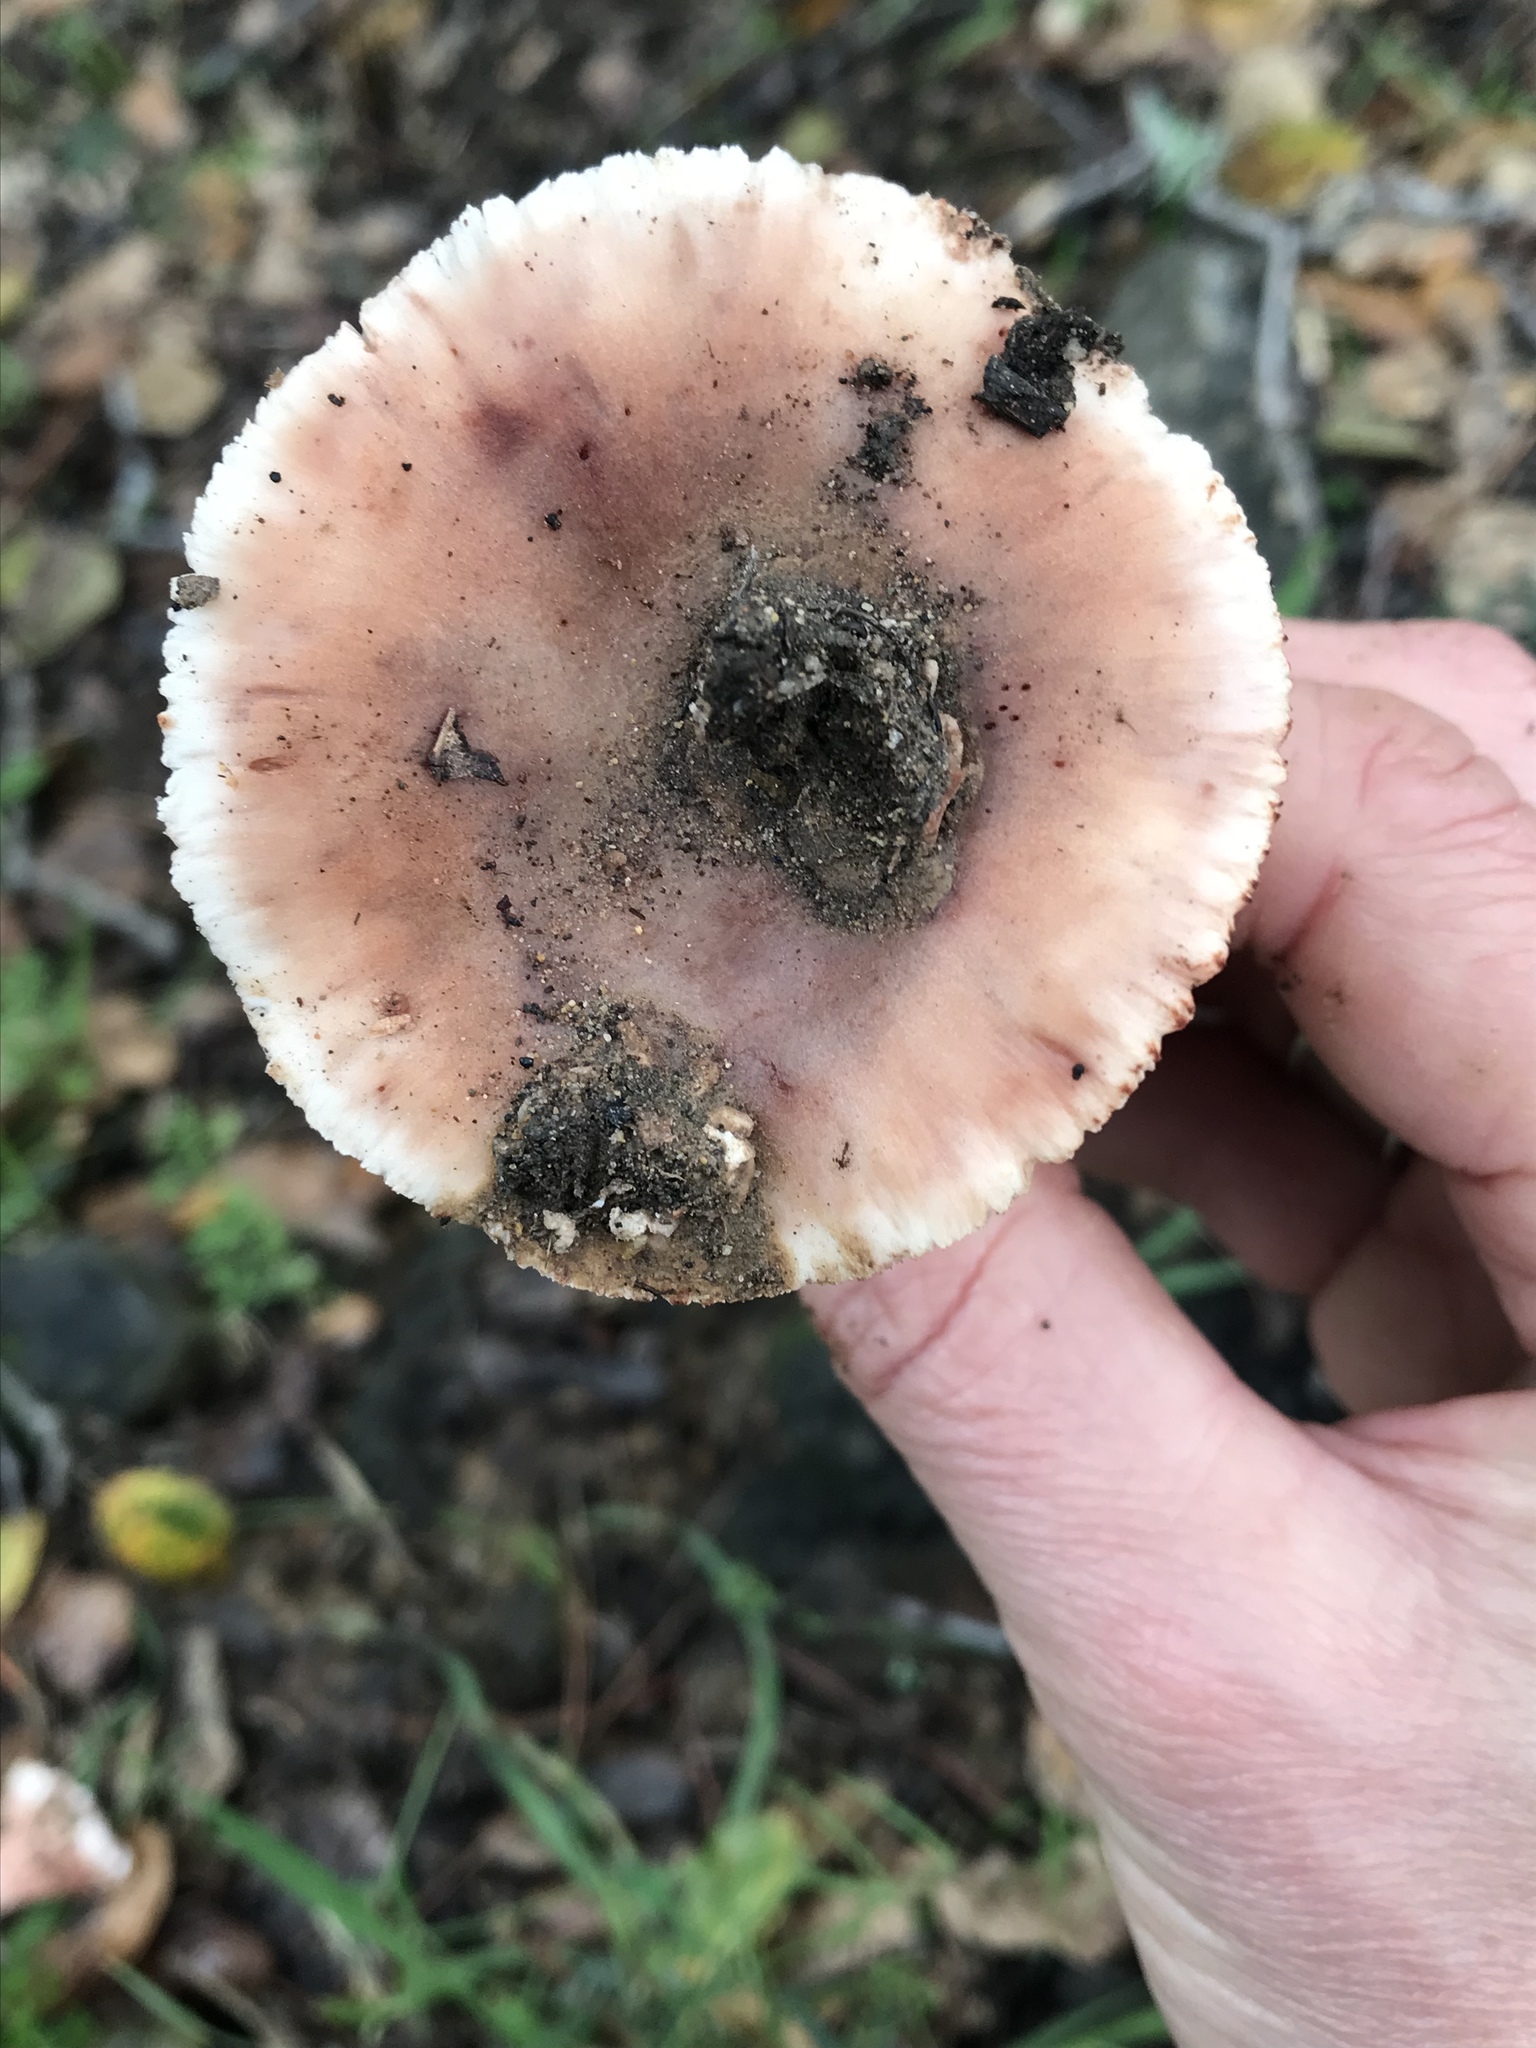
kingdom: Fungi
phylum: Basidiomycota
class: Agaricomycetes
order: Agaricales
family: Amanitaceae
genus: Amanita
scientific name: Amanita novinupta
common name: Blushing bride
